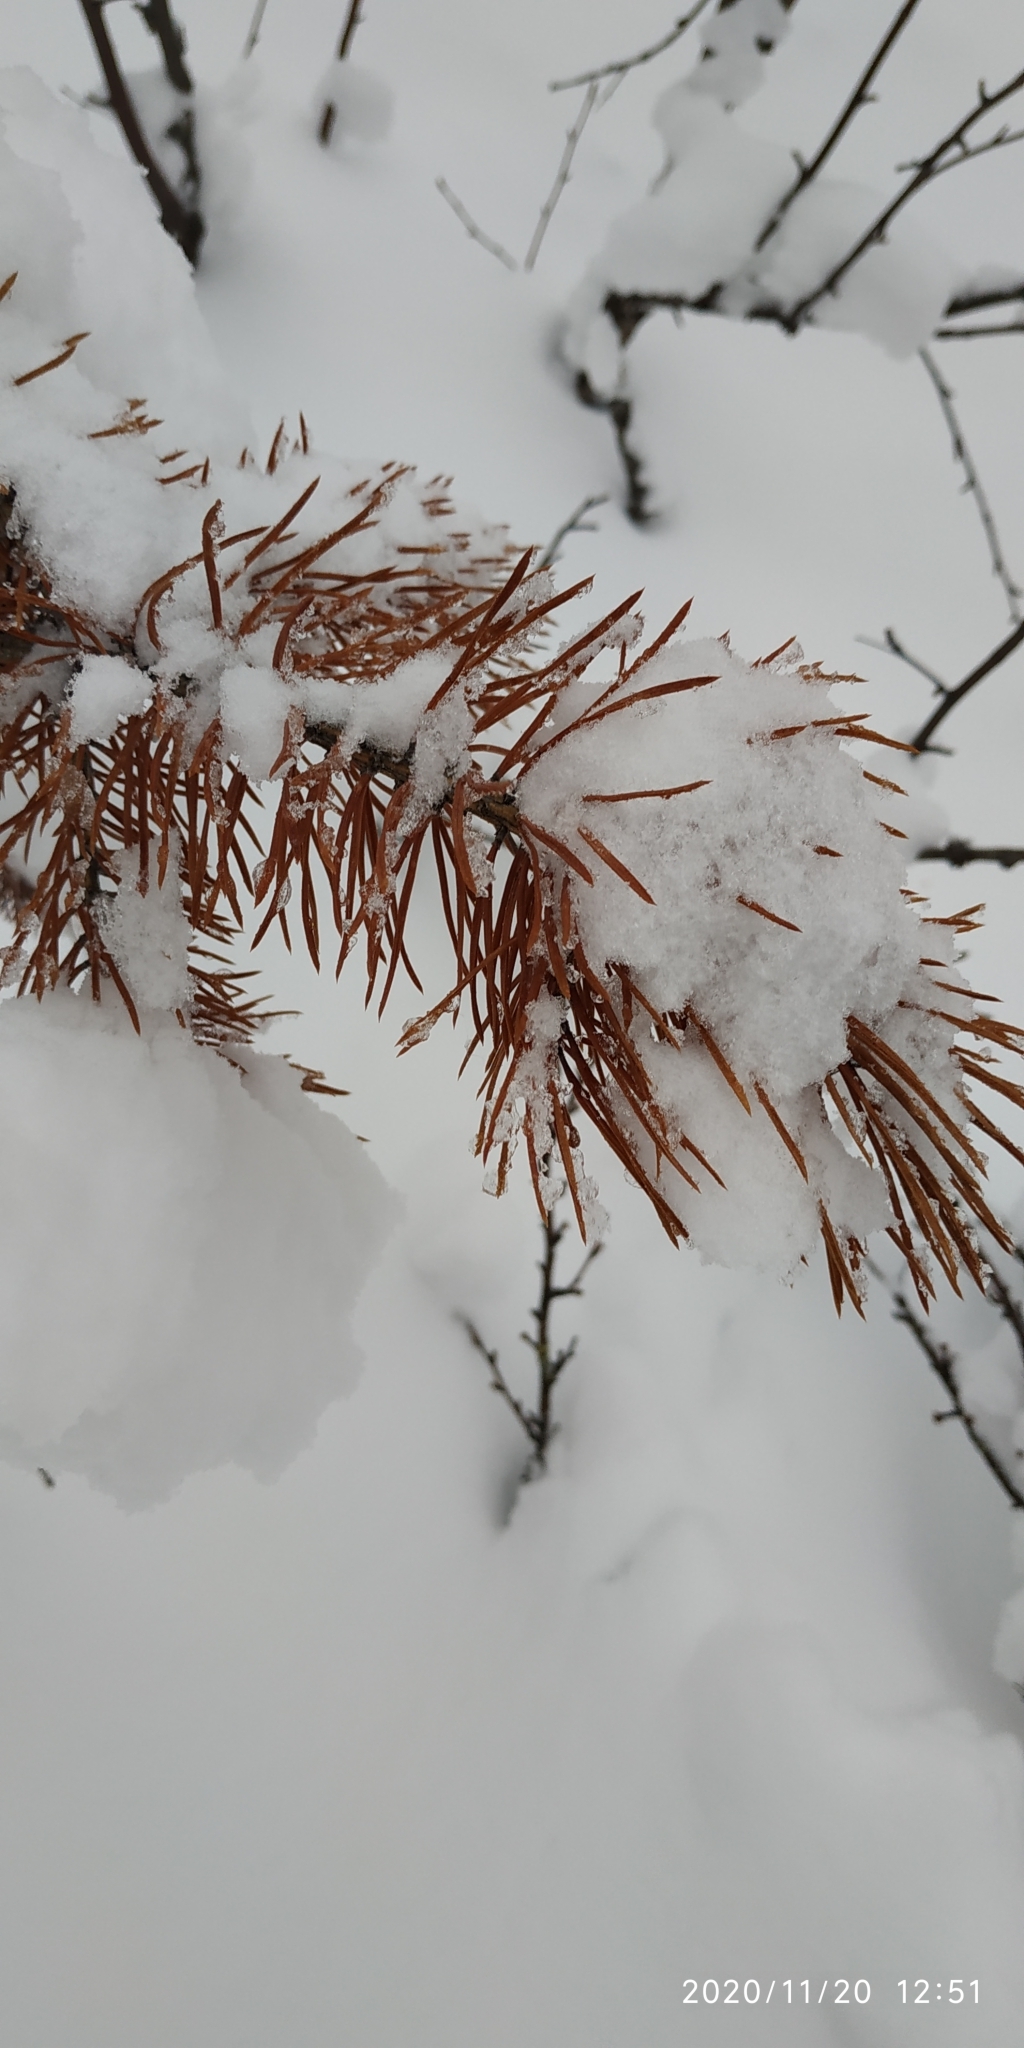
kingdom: Plantae
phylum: Tracheophyta
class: Pinopsida
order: Pinales
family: Pinaceae
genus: Pinus
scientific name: Pinus sylvestris
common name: Scots pine
